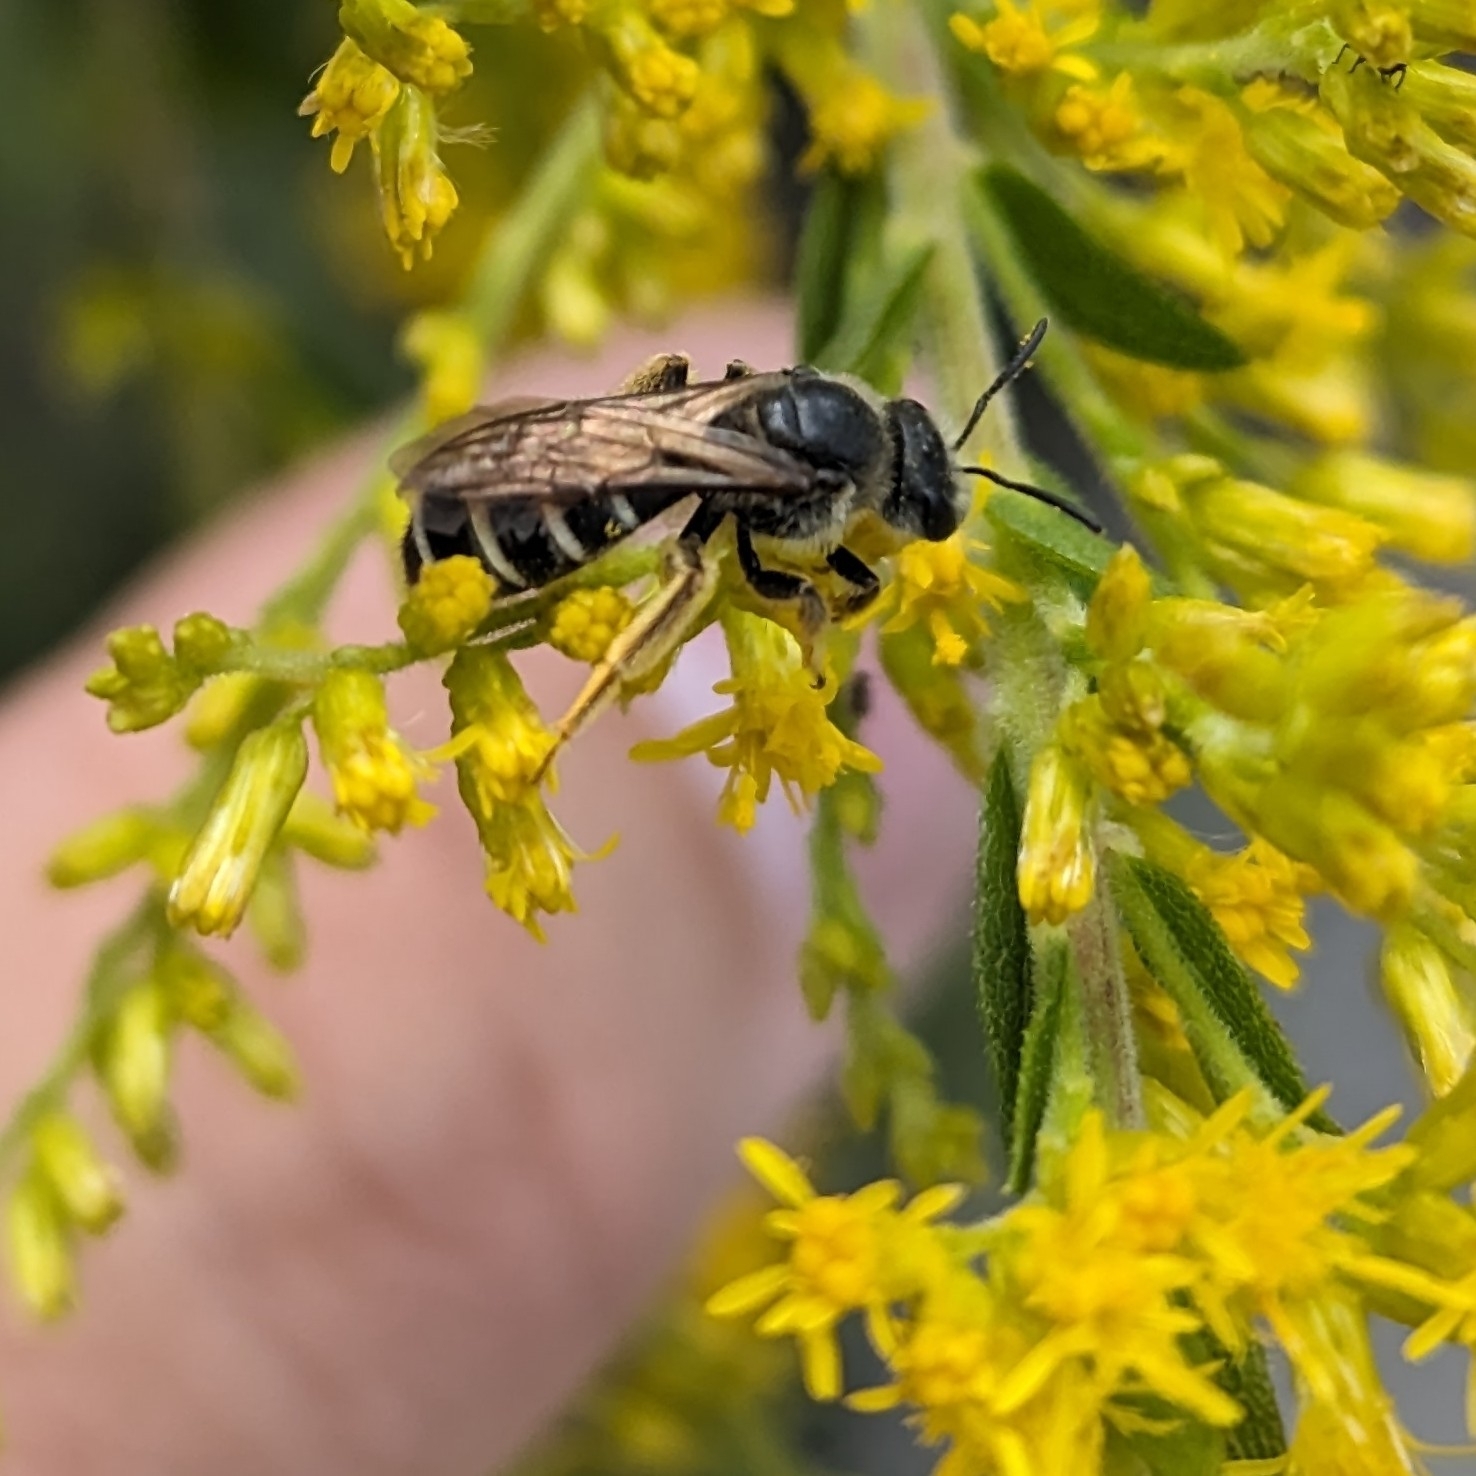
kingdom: Animalia
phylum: Arthropoda
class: Insecta
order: Hymenoptera
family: Halictidae
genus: Halictus
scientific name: Halictus rubicundus
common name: Orange-legged furrow bee
